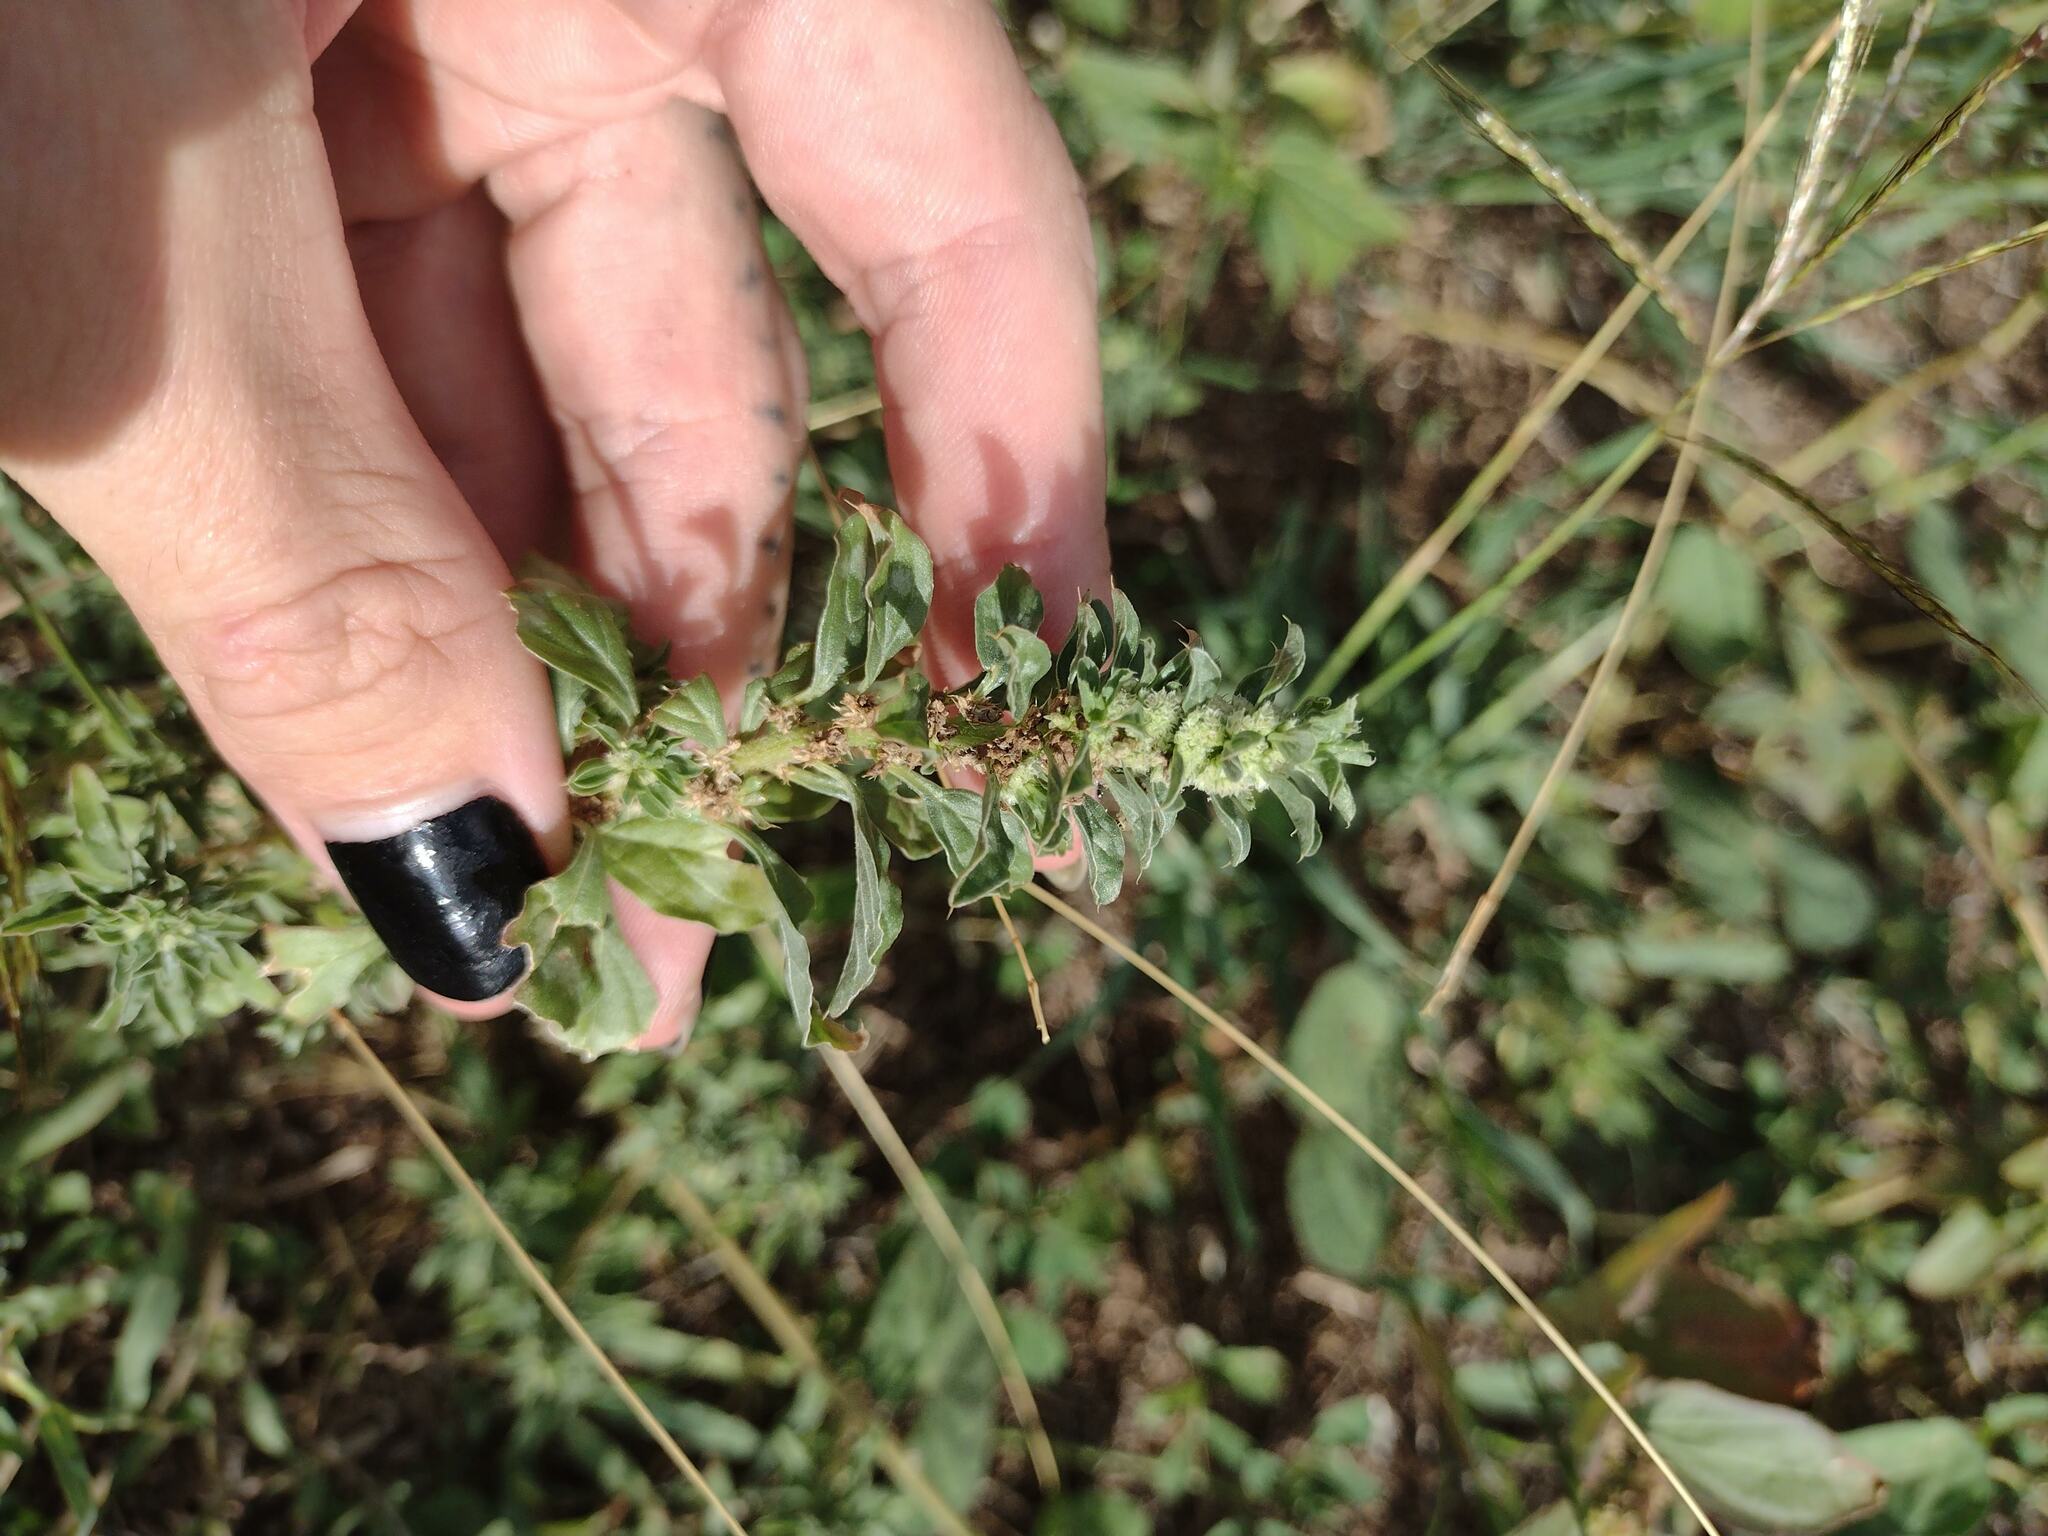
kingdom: Plantae
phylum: Tracheophyta
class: Magnoliopsida
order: Caryophyllales
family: Amaranthaceae
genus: Amaranthus
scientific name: Amaranthus polygonoides
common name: Tropical amaranth
